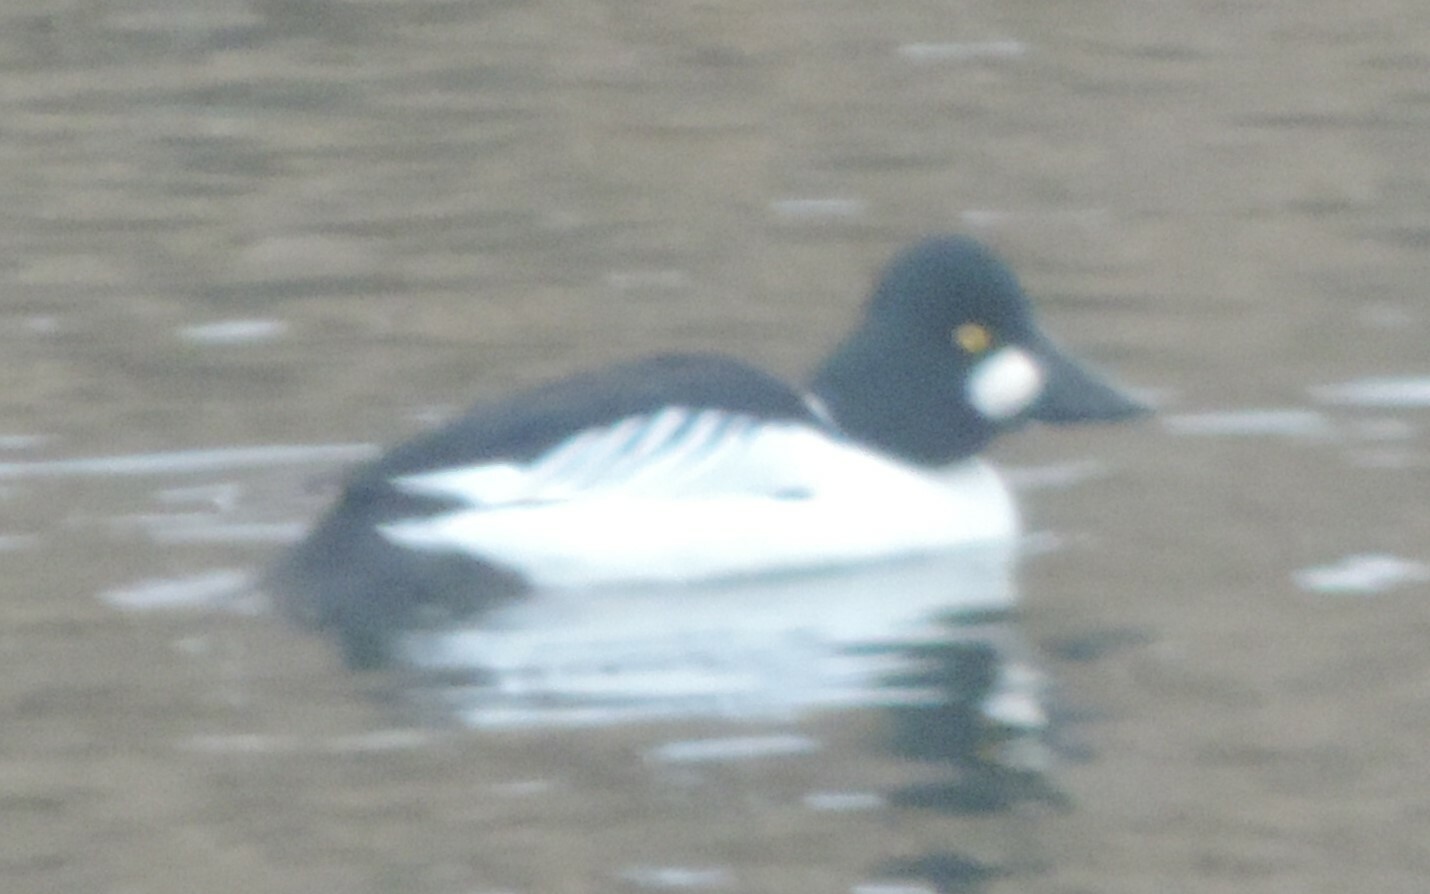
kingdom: Animalia
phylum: Chordata
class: Aves
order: Anseriformes
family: Anatidae
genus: Bucephala
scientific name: Bucephala clangula
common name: Common goldeneye
